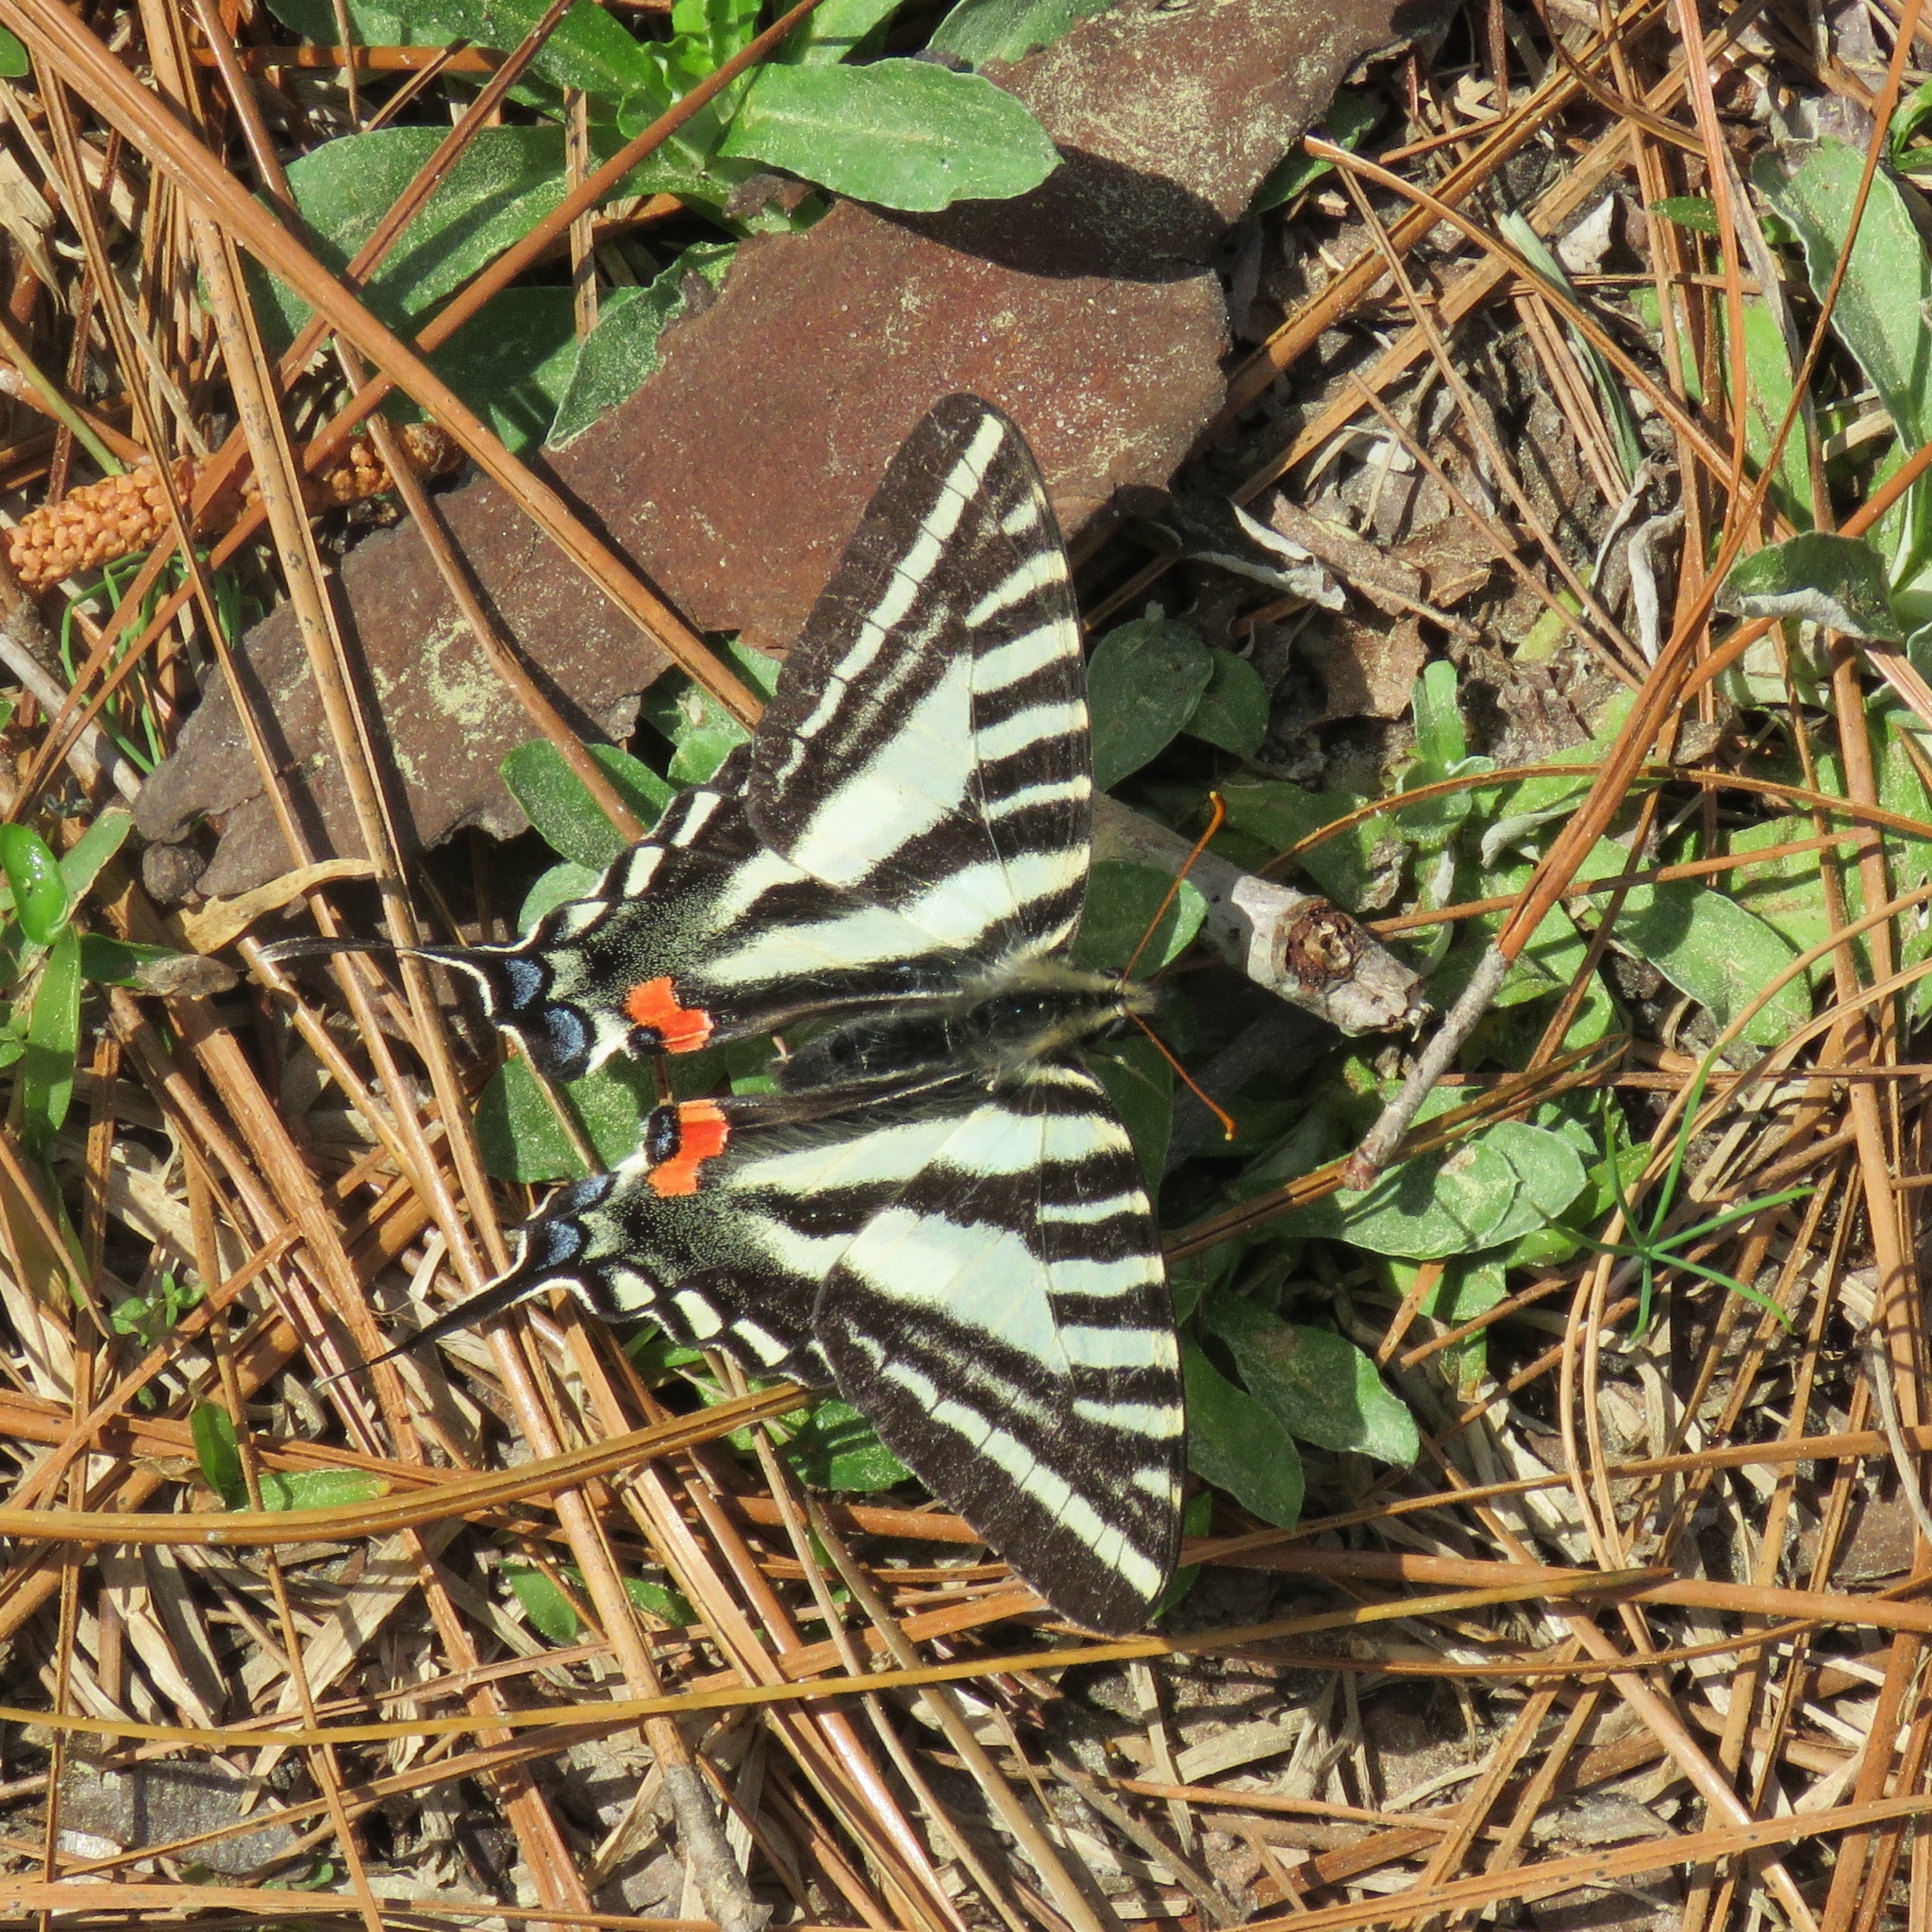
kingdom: Animalia
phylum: Arthropoda
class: Insecta
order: Lepidoptera
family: Papilionidae
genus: Protographium
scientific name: Protographium marcellus
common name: Zebra swallowtail
